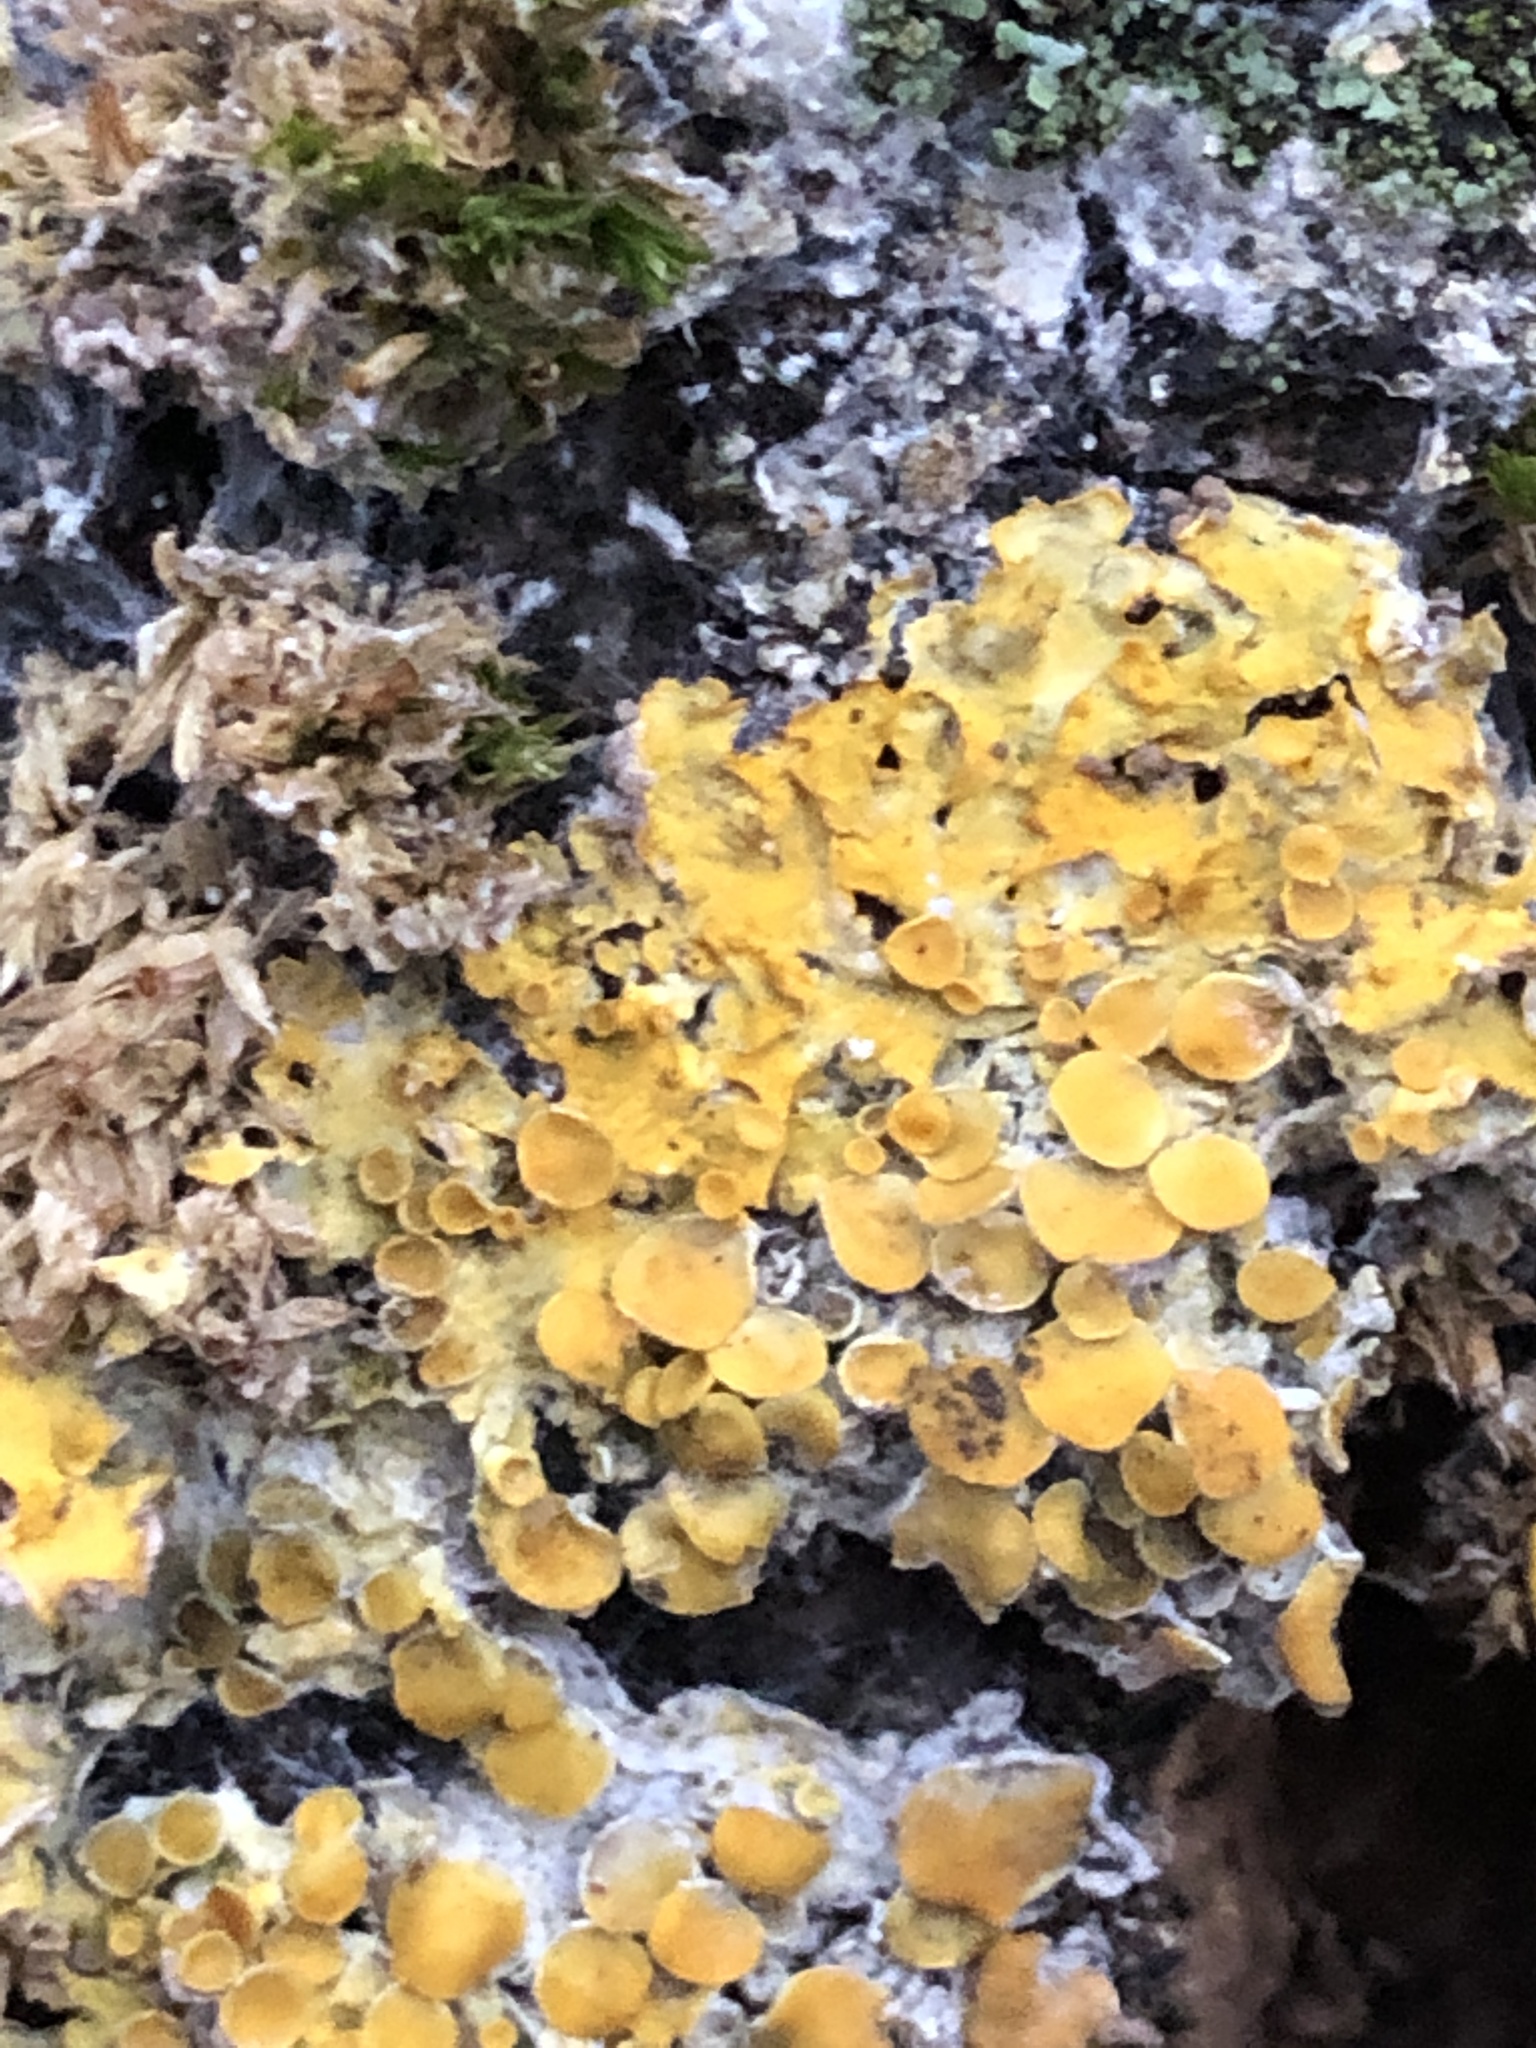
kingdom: Fungi
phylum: Ascomycota
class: Lecanoromycetes
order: Teloschistales
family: Teloschistaceae
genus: Xanthoria
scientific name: Xanthoria parietina
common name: Common orange lichen
